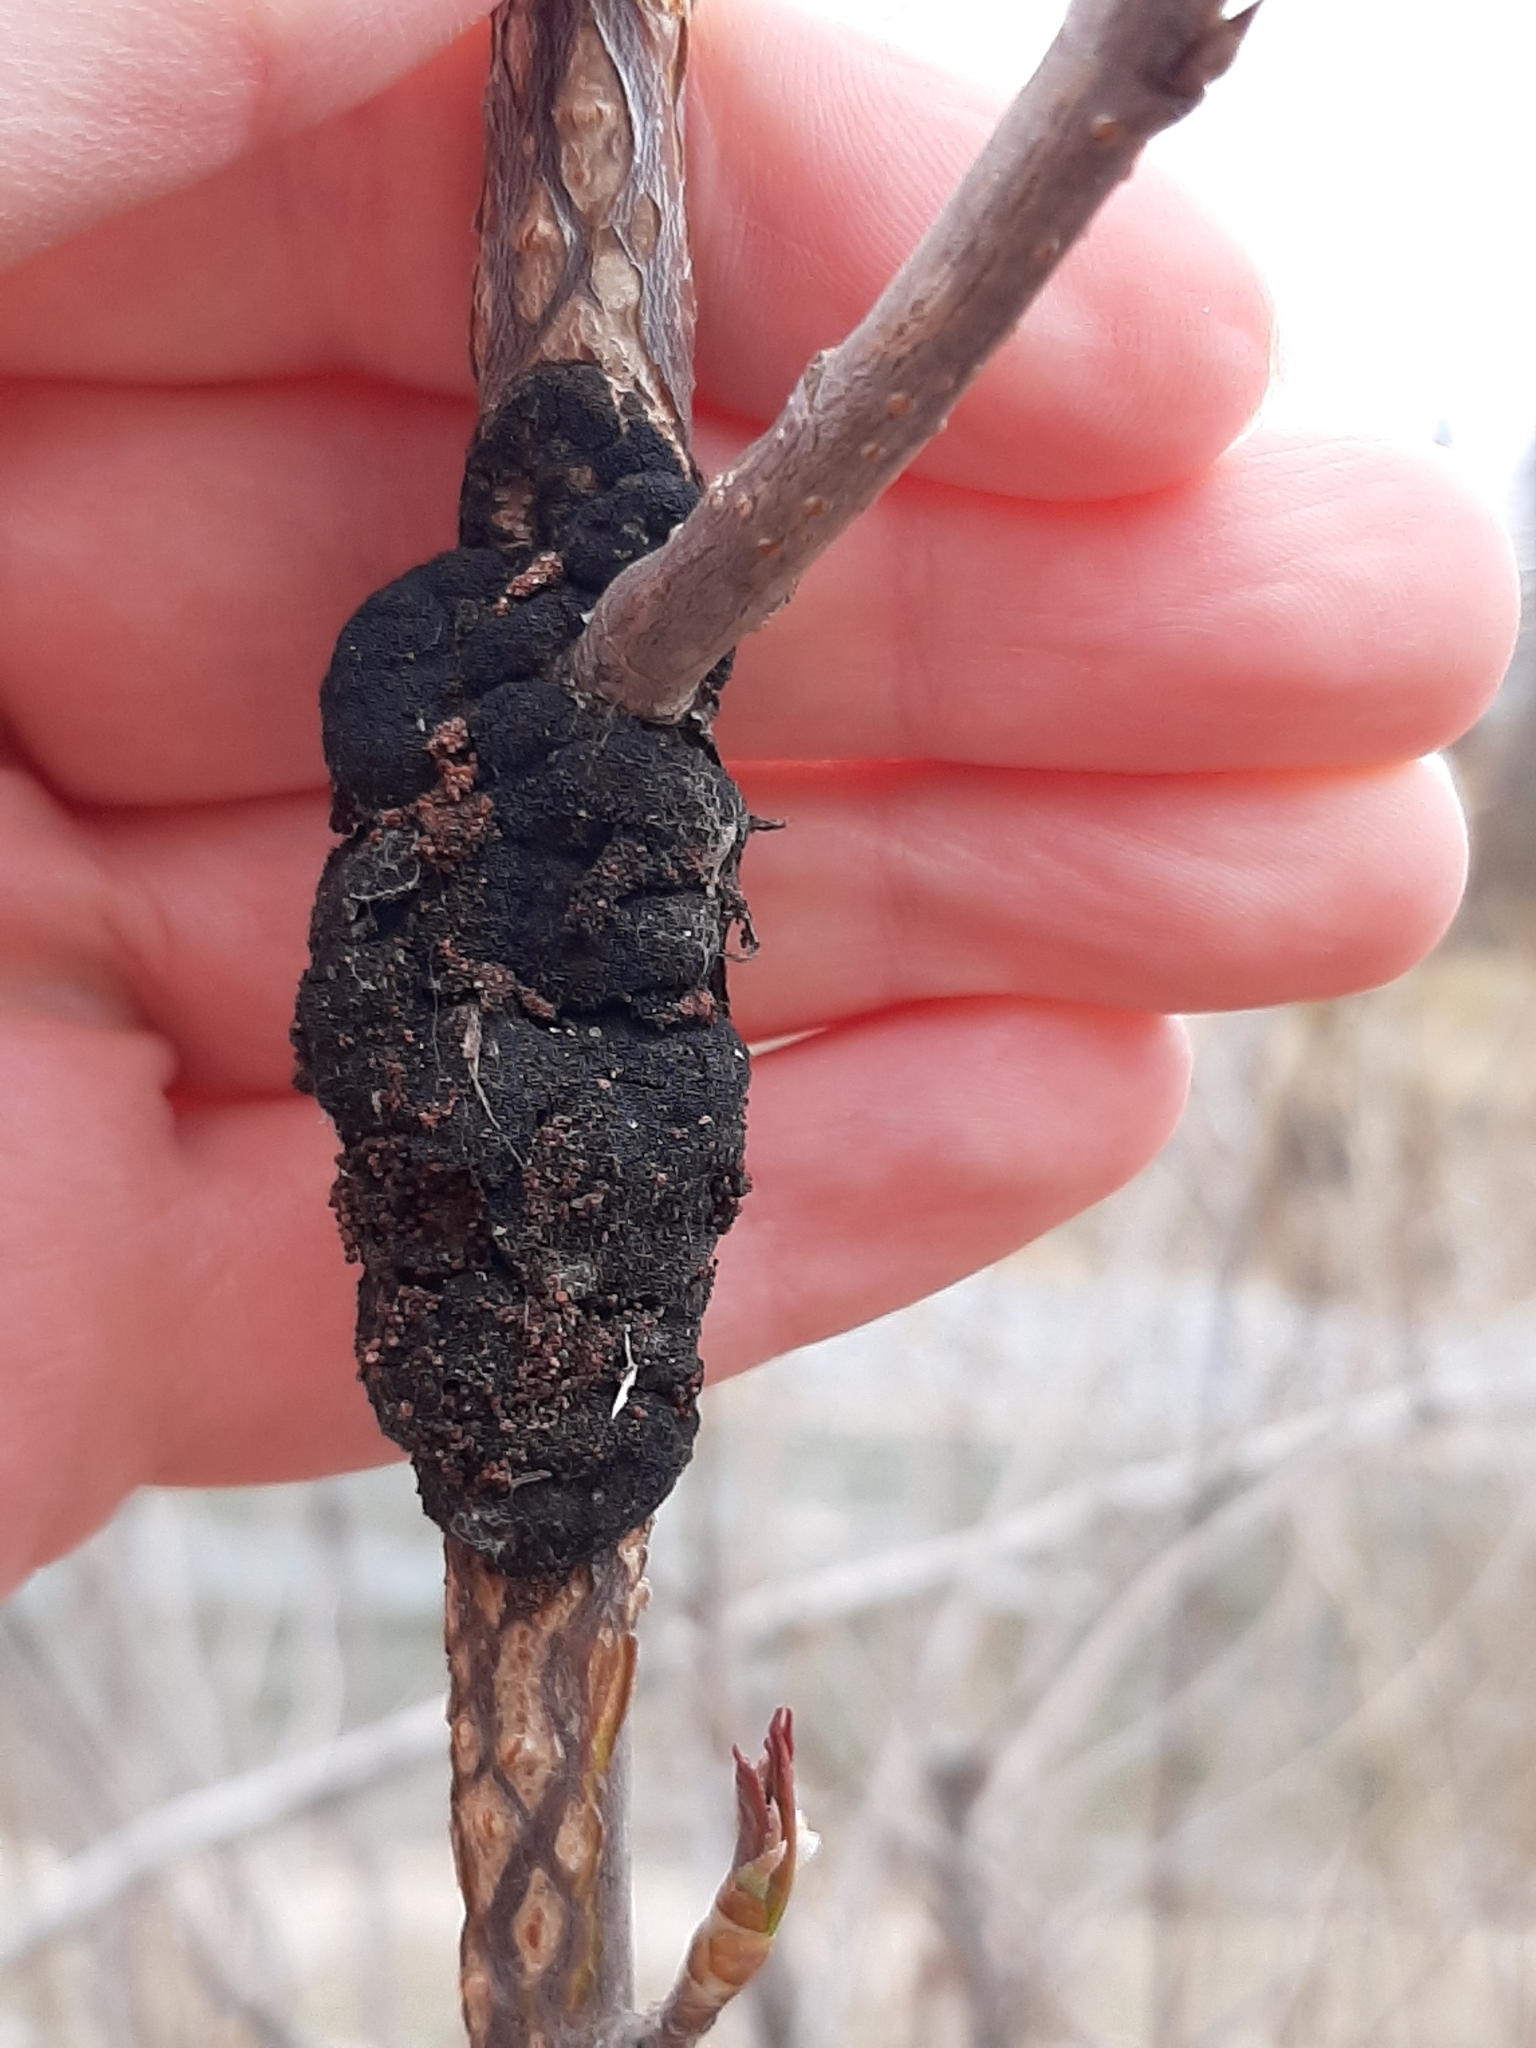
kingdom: Fungi
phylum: Ascomycota
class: Dothideomycetes
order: Venturiales
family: Venturiaceae
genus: Apiosporina
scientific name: Apiosporina morbosa
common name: Black knot
